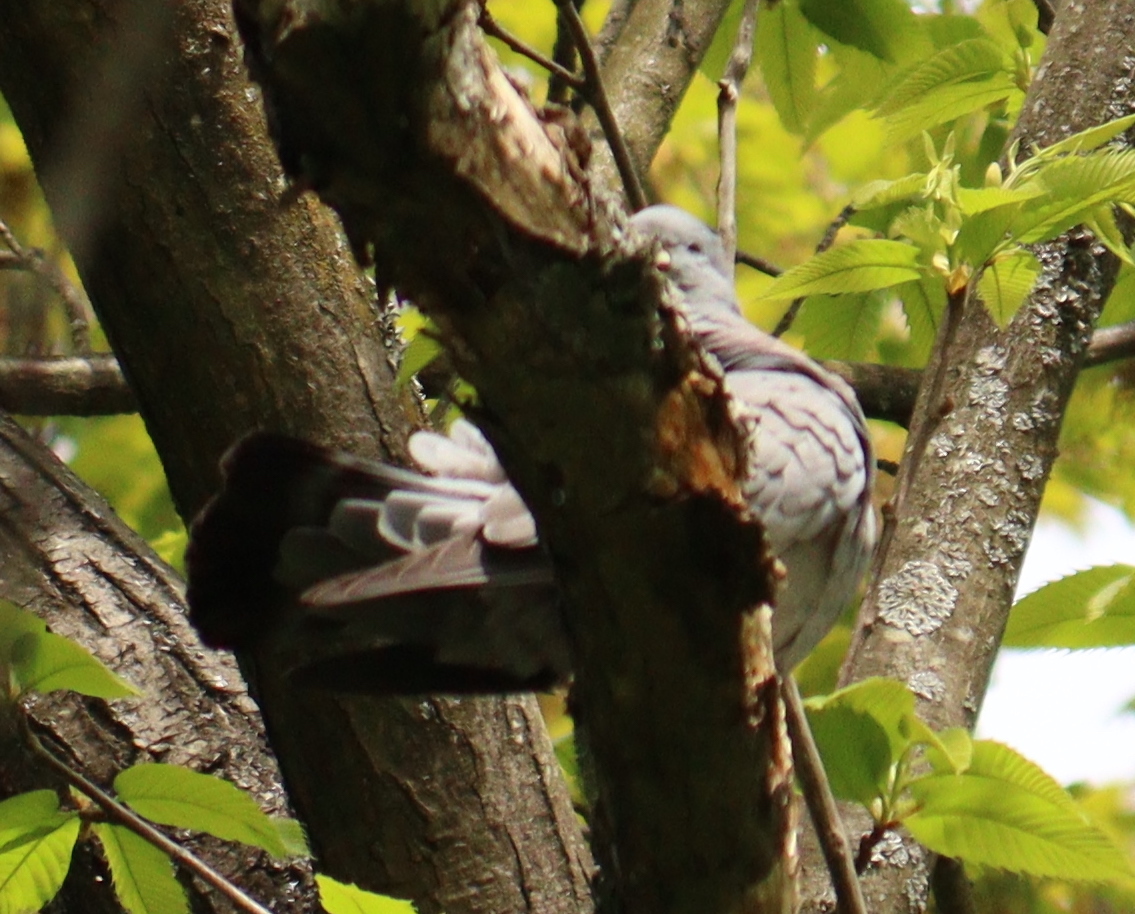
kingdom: Animalia
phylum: Chordata
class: Aves
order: Columbiformes
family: Columbidae
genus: Columba
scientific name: Columba oenas
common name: Stock dove
